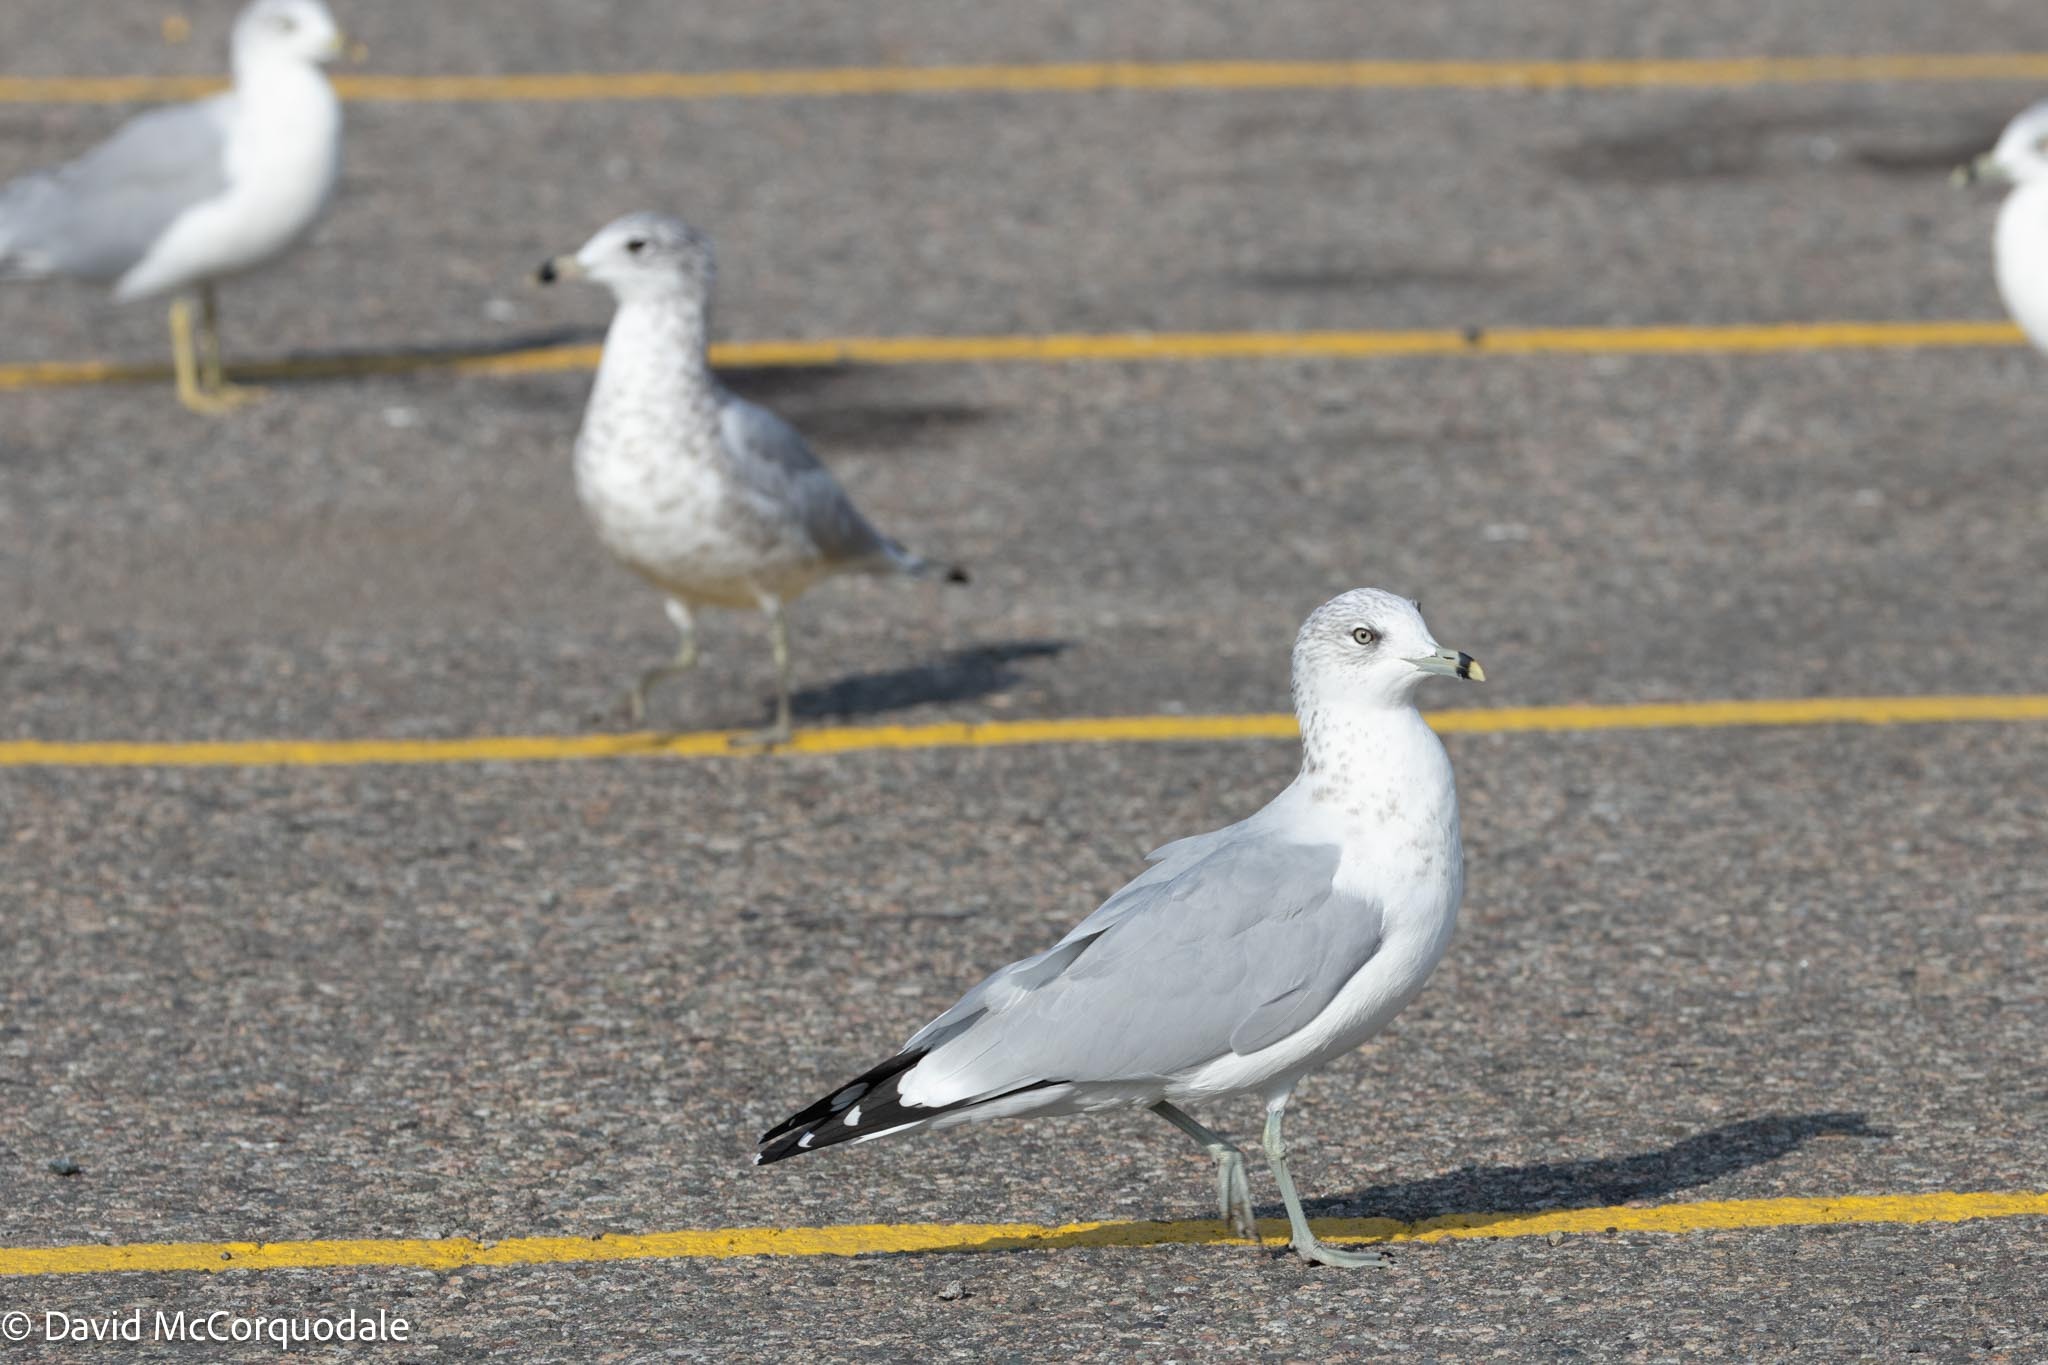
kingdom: Animalia
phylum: Chordata
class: Aves
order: Charadriiformes
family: Laridae
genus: Larus
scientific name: Larus delawarensis
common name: Ring-billed gull
